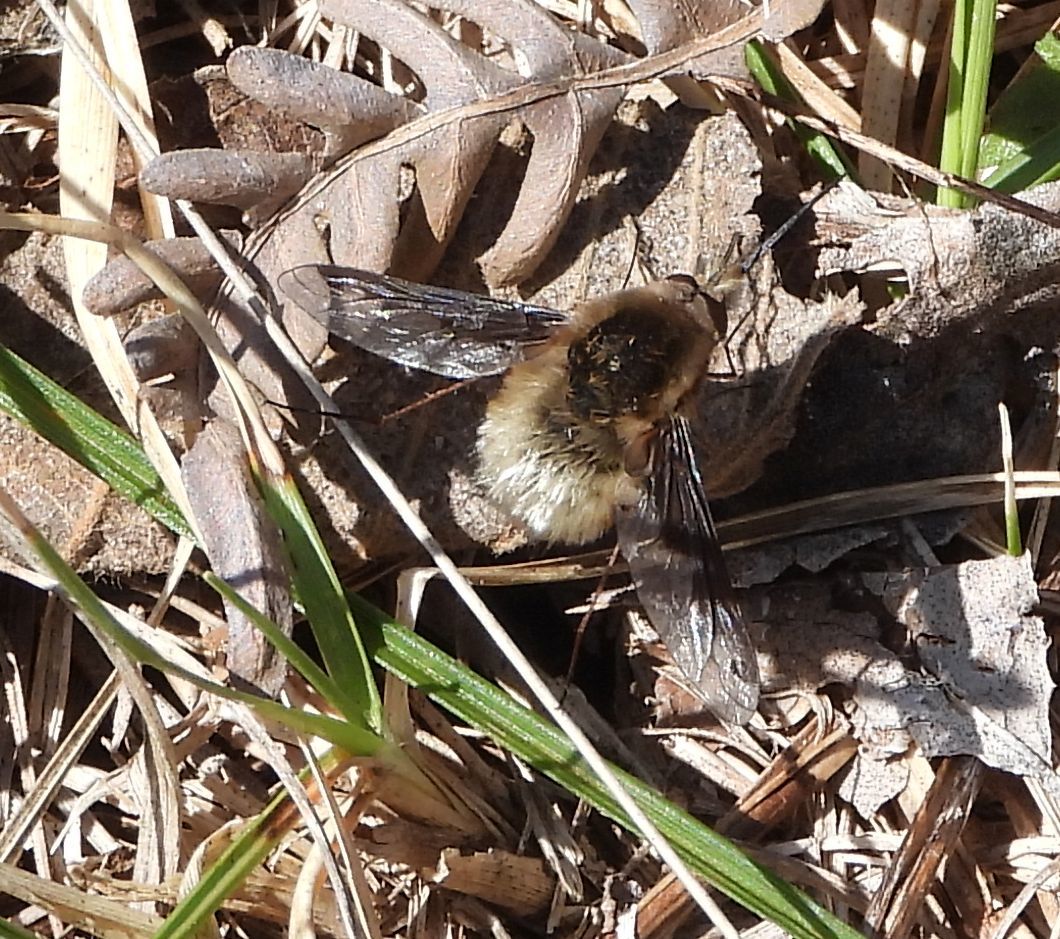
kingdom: Animalia
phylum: Arthropoda
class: Insecta
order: Diptera
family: Bombyliidae
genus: Bombylius
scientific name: Bombylius major
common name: Bee fly
